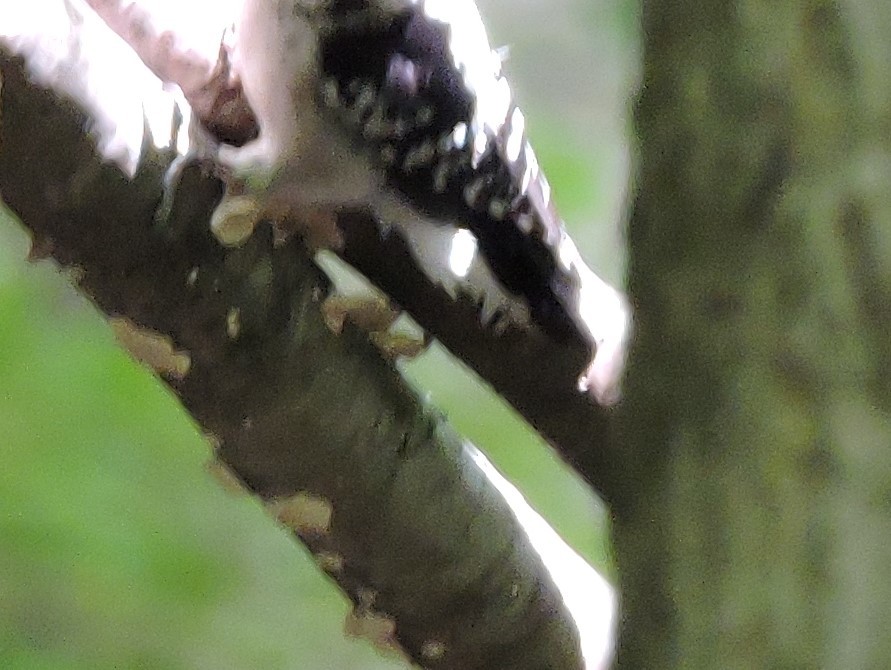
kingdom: Animalia
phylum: Chordata
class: Aves
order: Piciformes
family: Picidae
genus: Dryobates
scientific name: Dryobates pubescens
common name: Downy woodpecker
